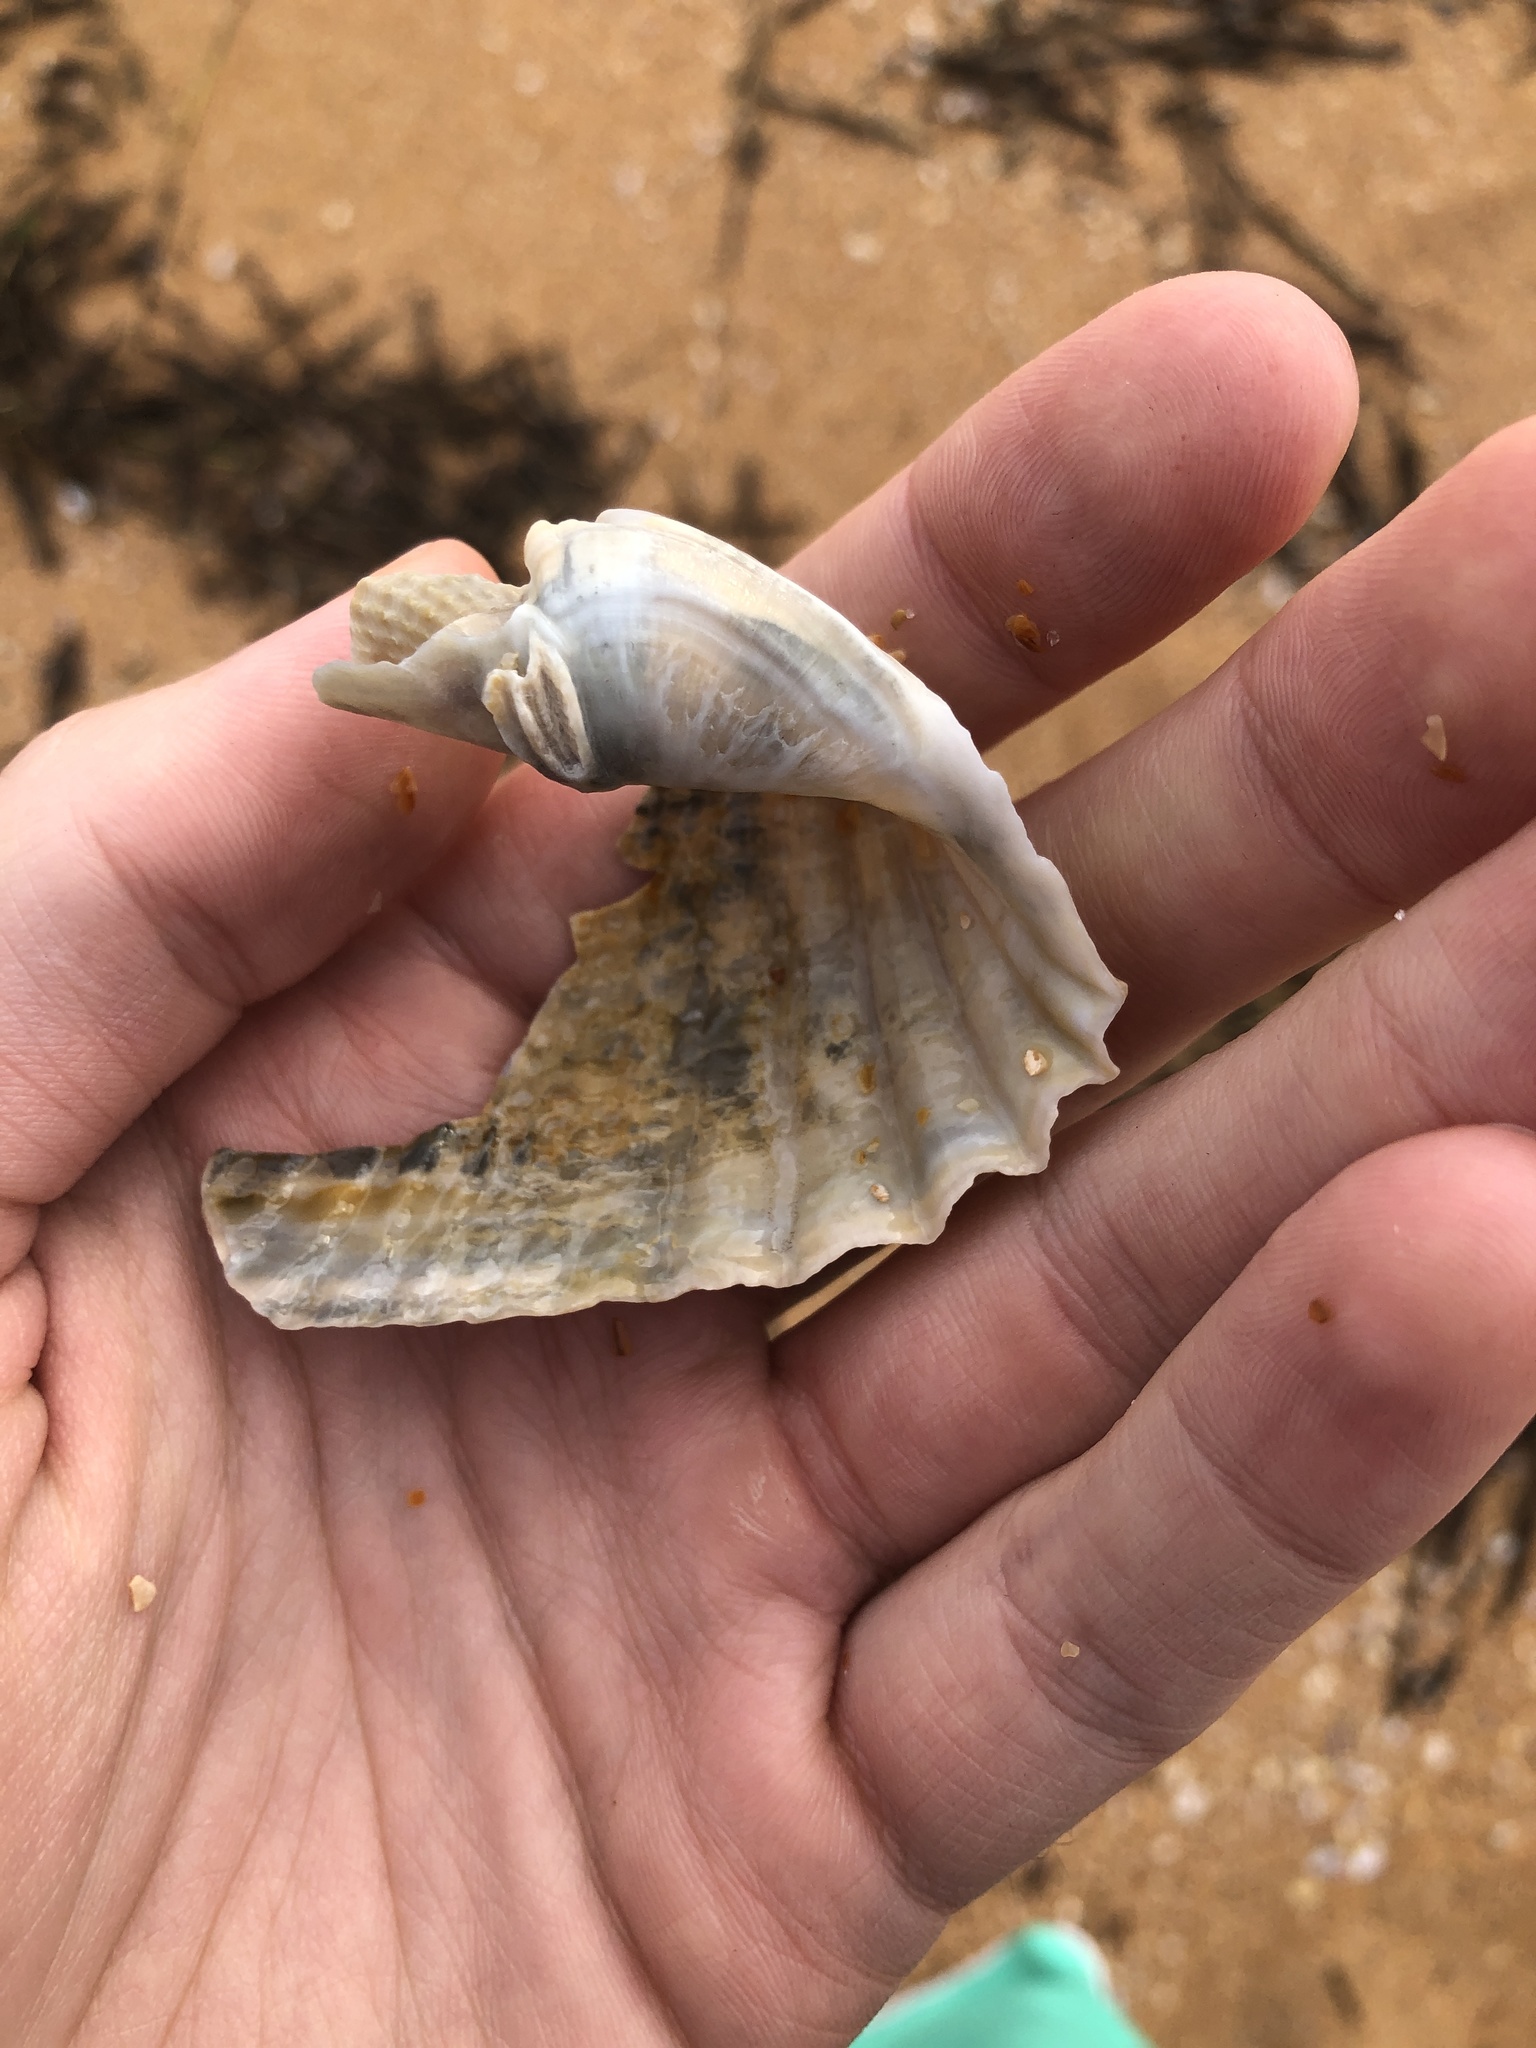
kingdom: Animalia
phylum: Mollusca
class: Bivalvia
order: Myida
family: Pholadidae
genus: Cyrtopleura
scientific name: Cyrtopleura costata
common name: Angel wing
